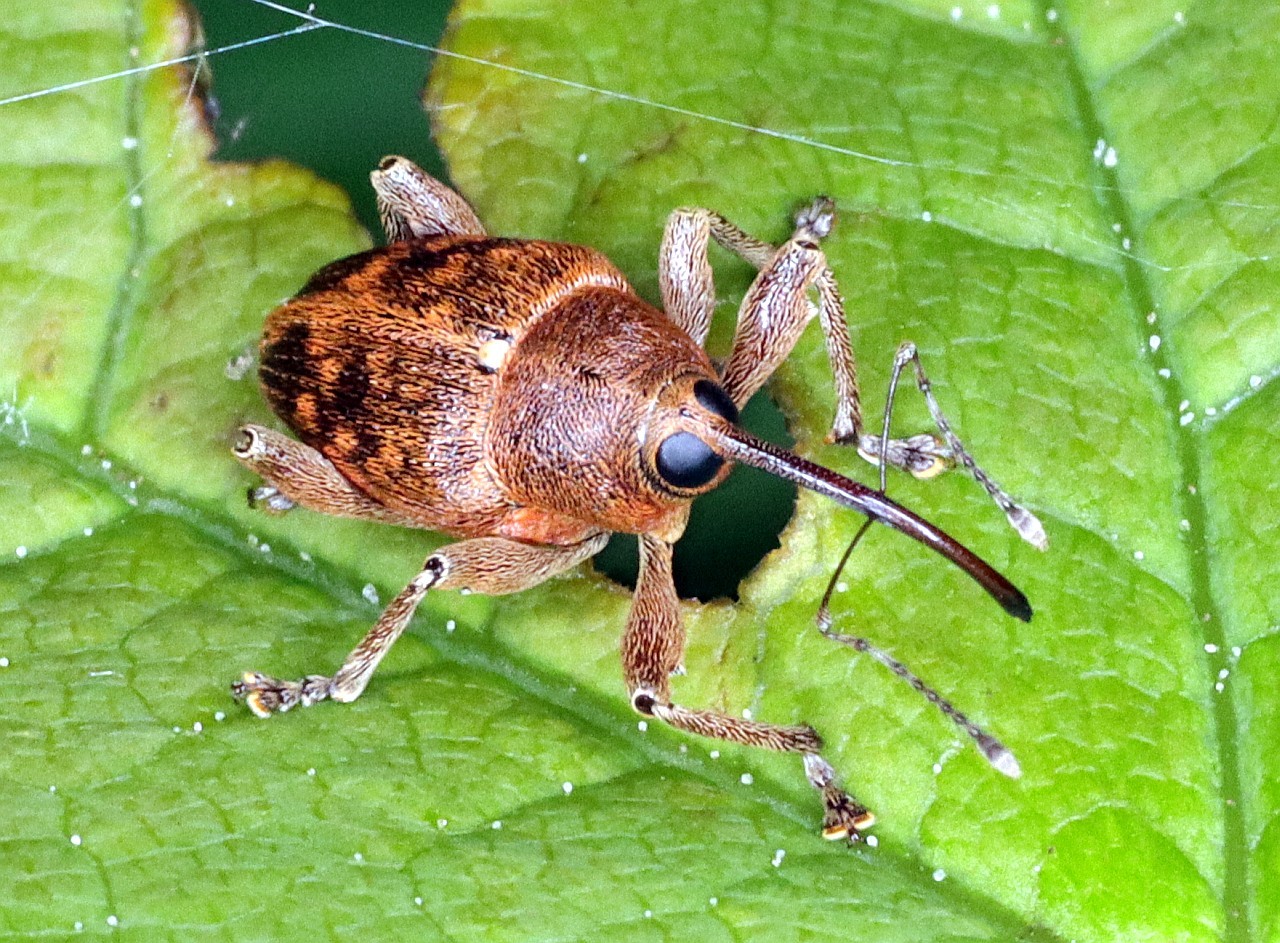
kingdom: Animalia
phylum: Arthropoda
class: Insecta
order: Coleoptera
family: Curculionidae
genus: Curculio
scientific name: Curculio glandium
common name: Acorn weevil
